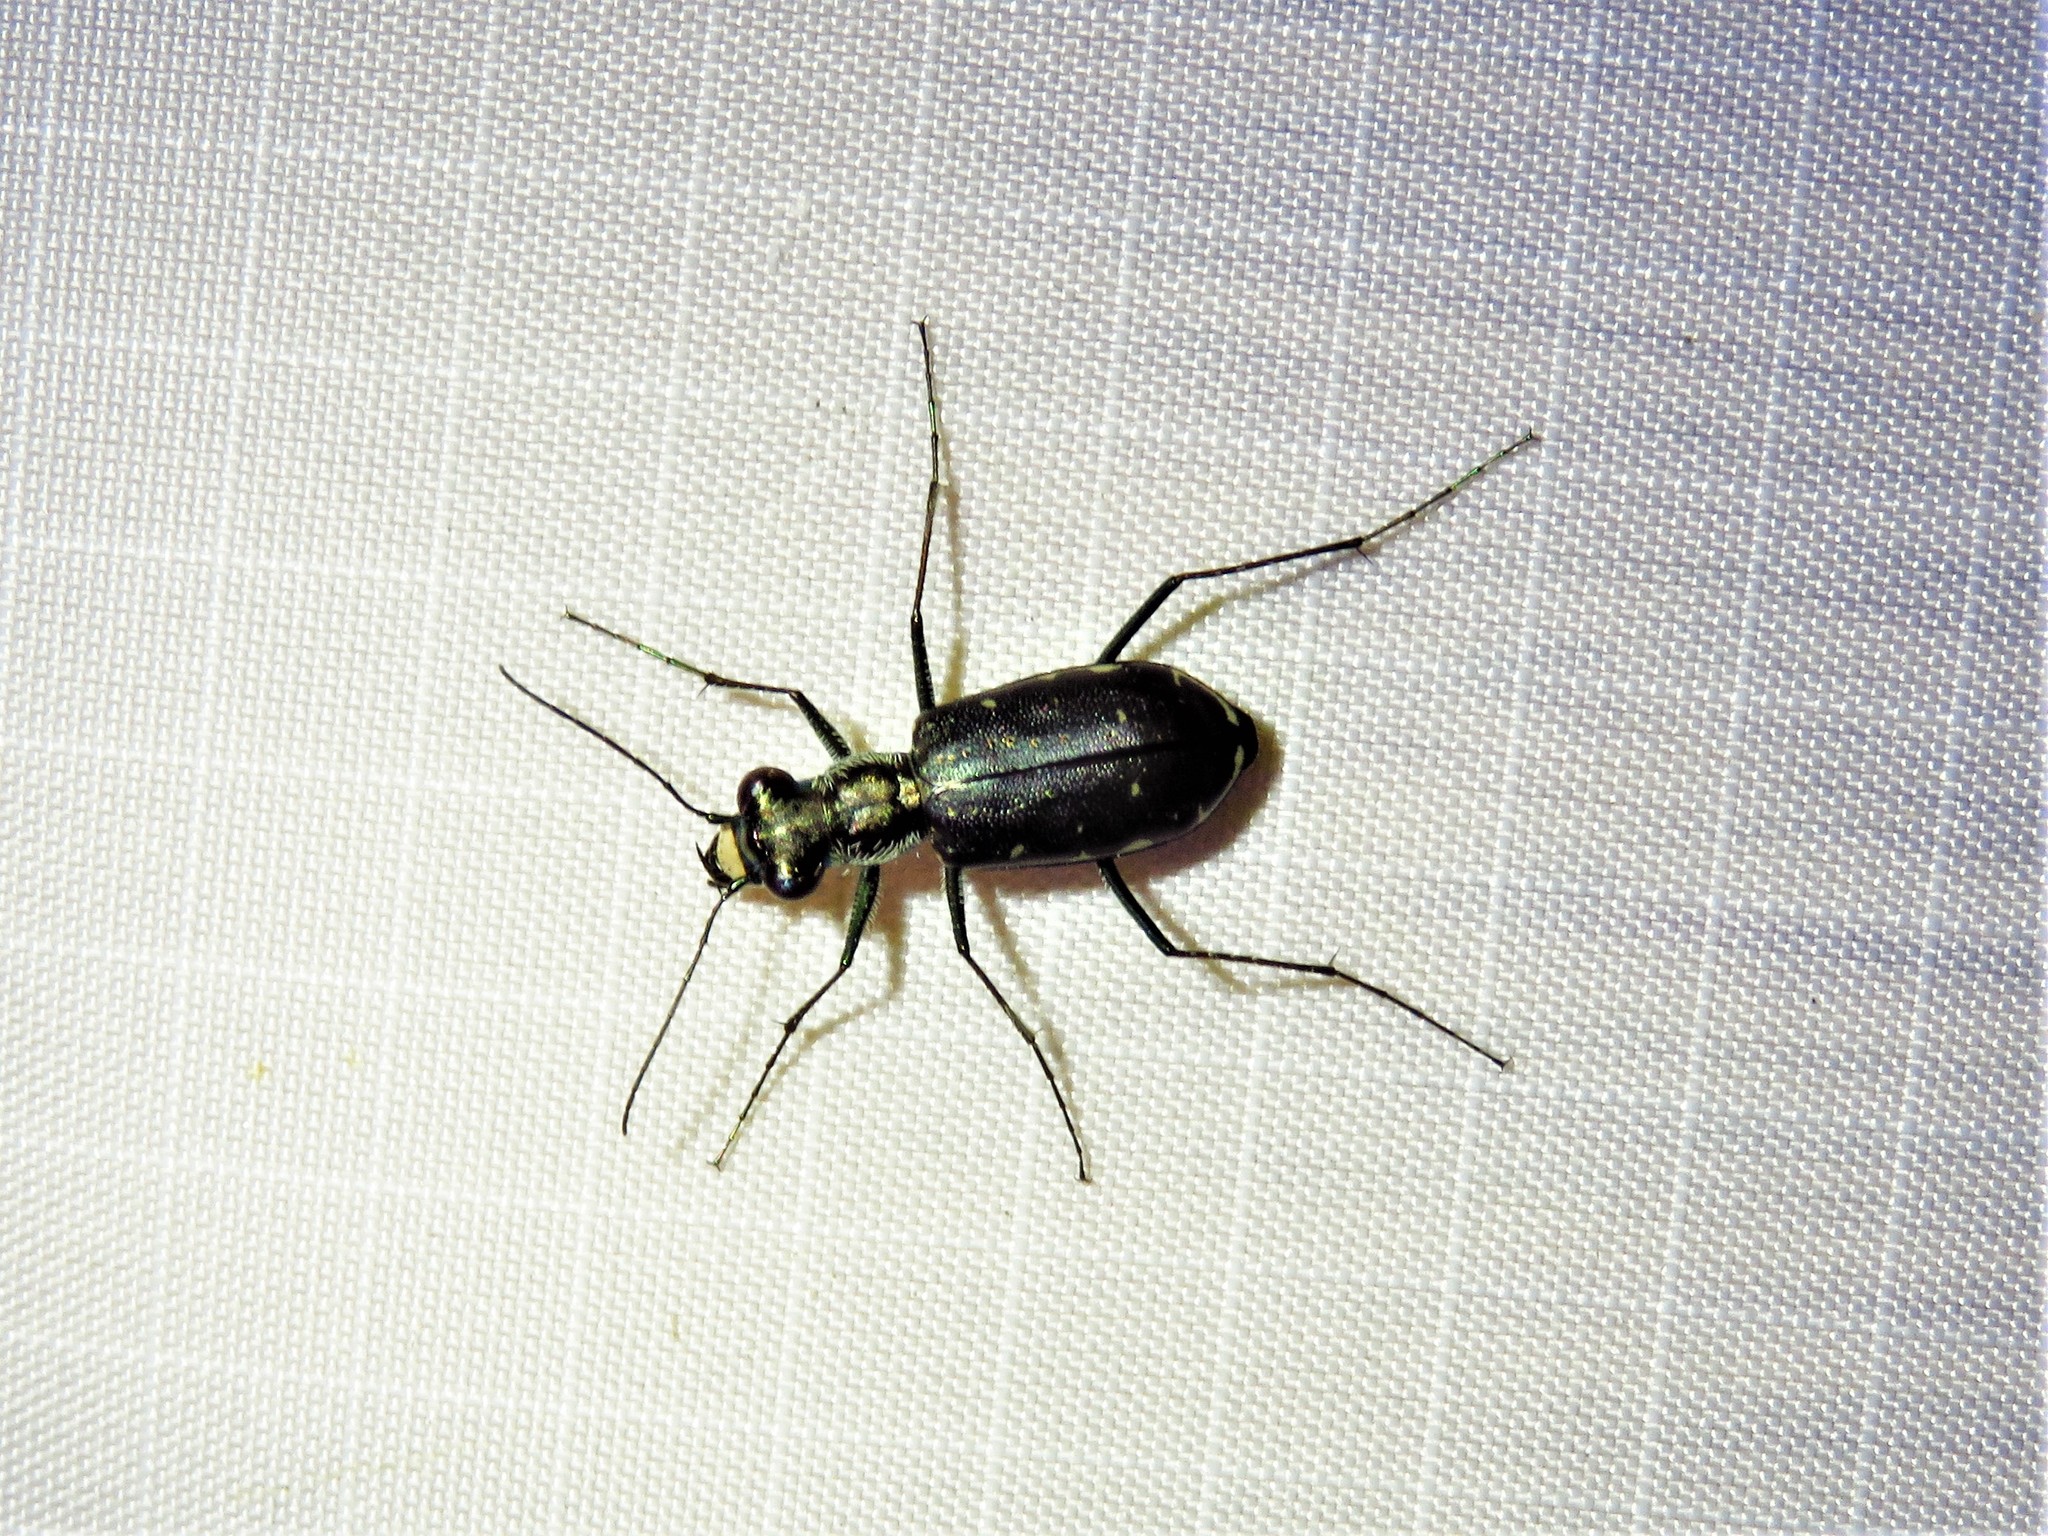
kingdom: Animalia
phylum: Arthropoda
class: Insecta
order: Coleoptera
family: Carabidae
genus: Cicindela
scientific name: Cicindela punctulata
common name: Punctured tiger beetle
